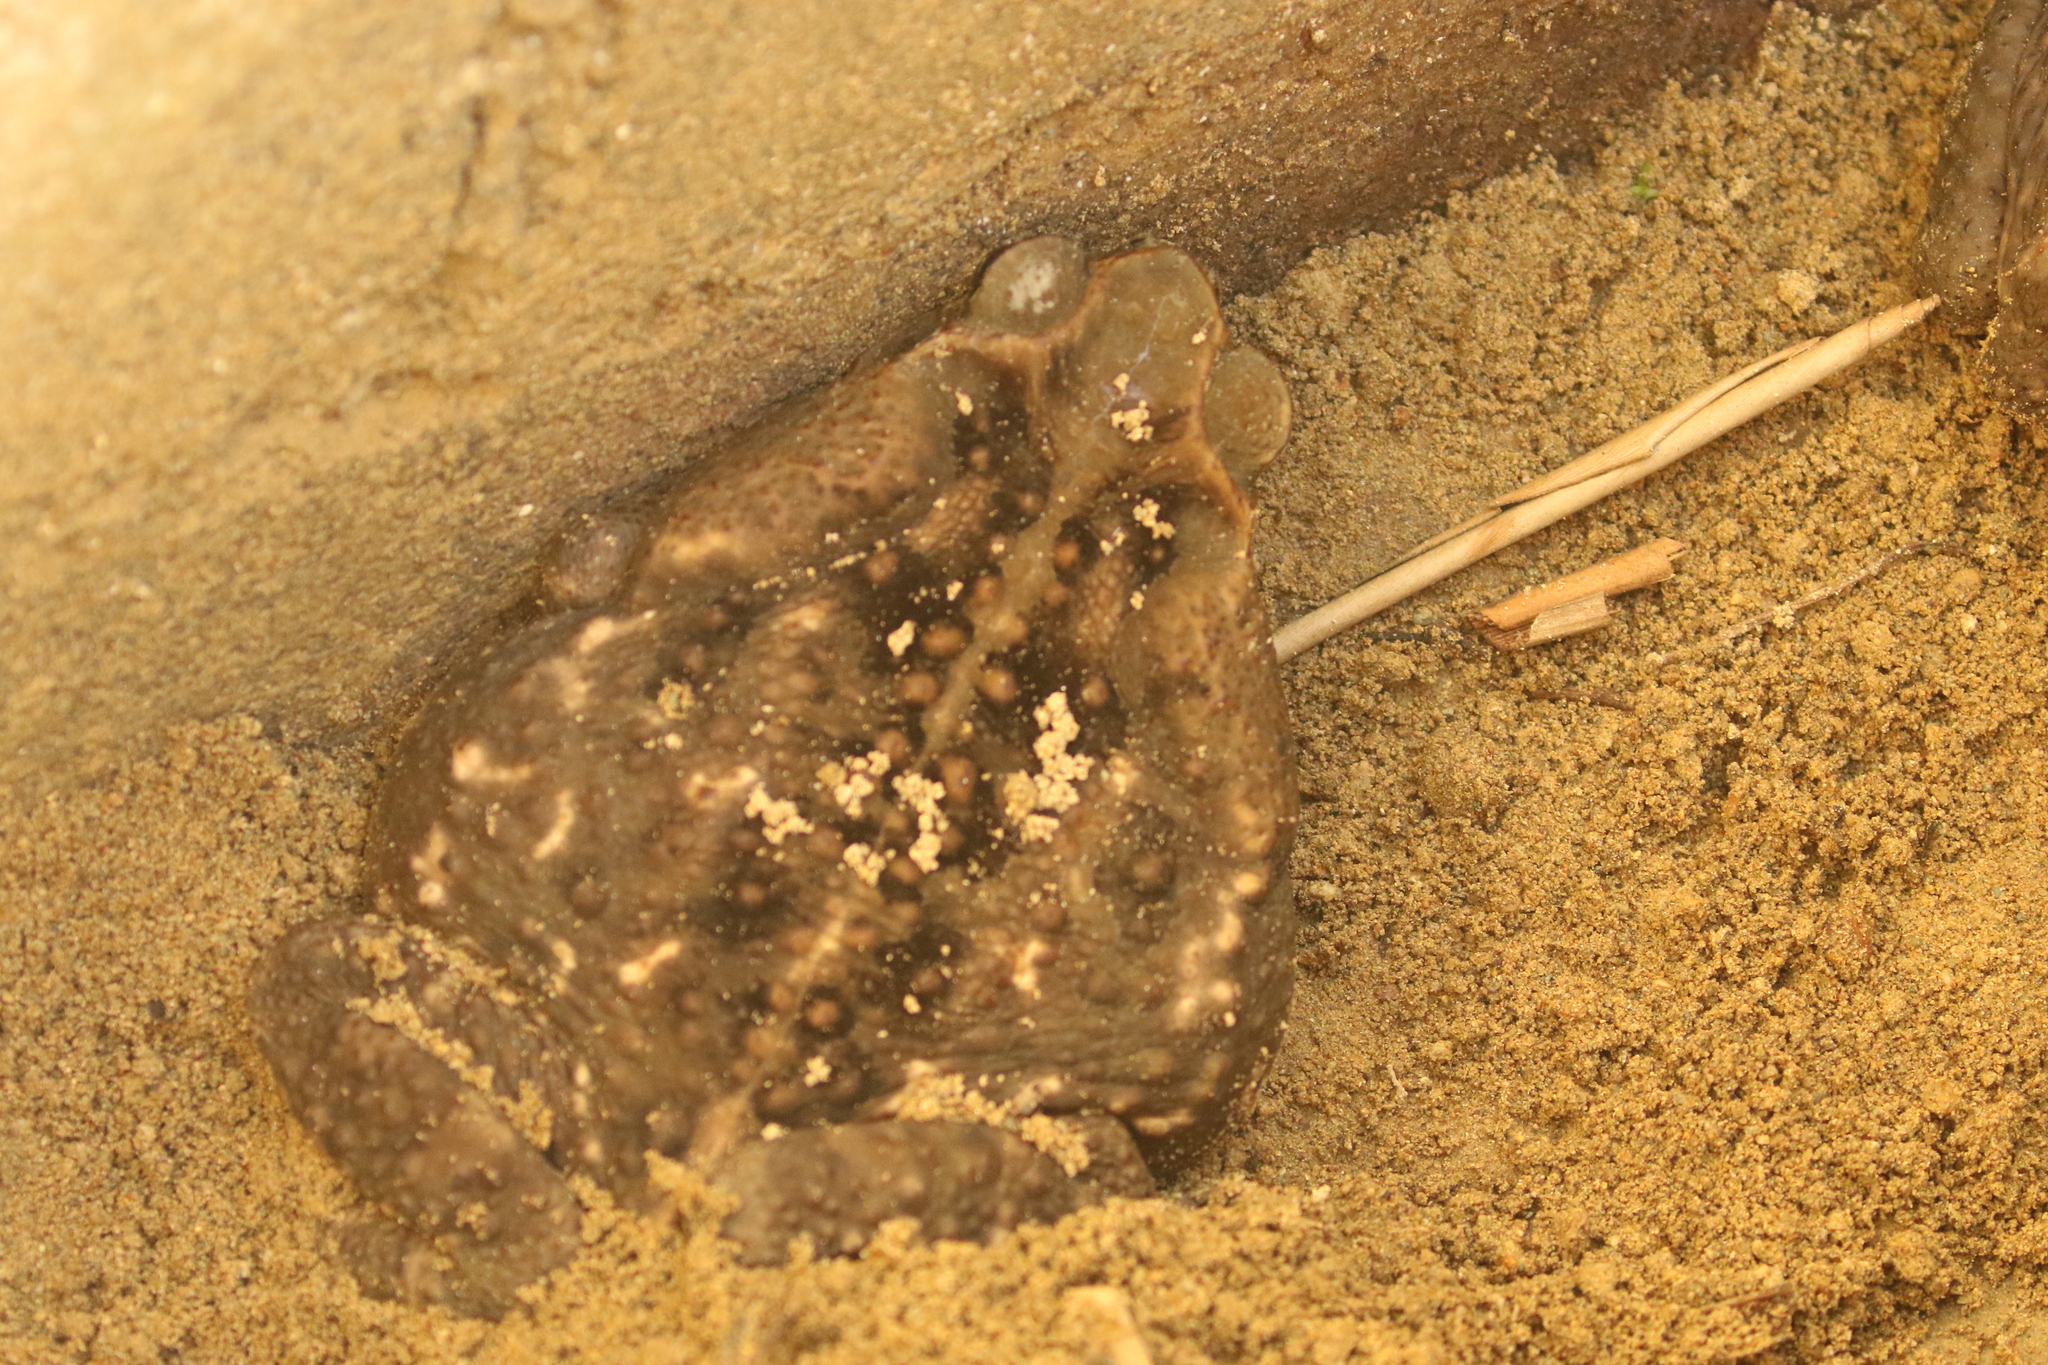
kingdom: Animalia
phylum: Chordata
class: Amphibia
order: Anura
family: Bufonidae
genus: Rhinella
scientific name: Rhinella horribilis
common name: Mesoamerican cane toad
